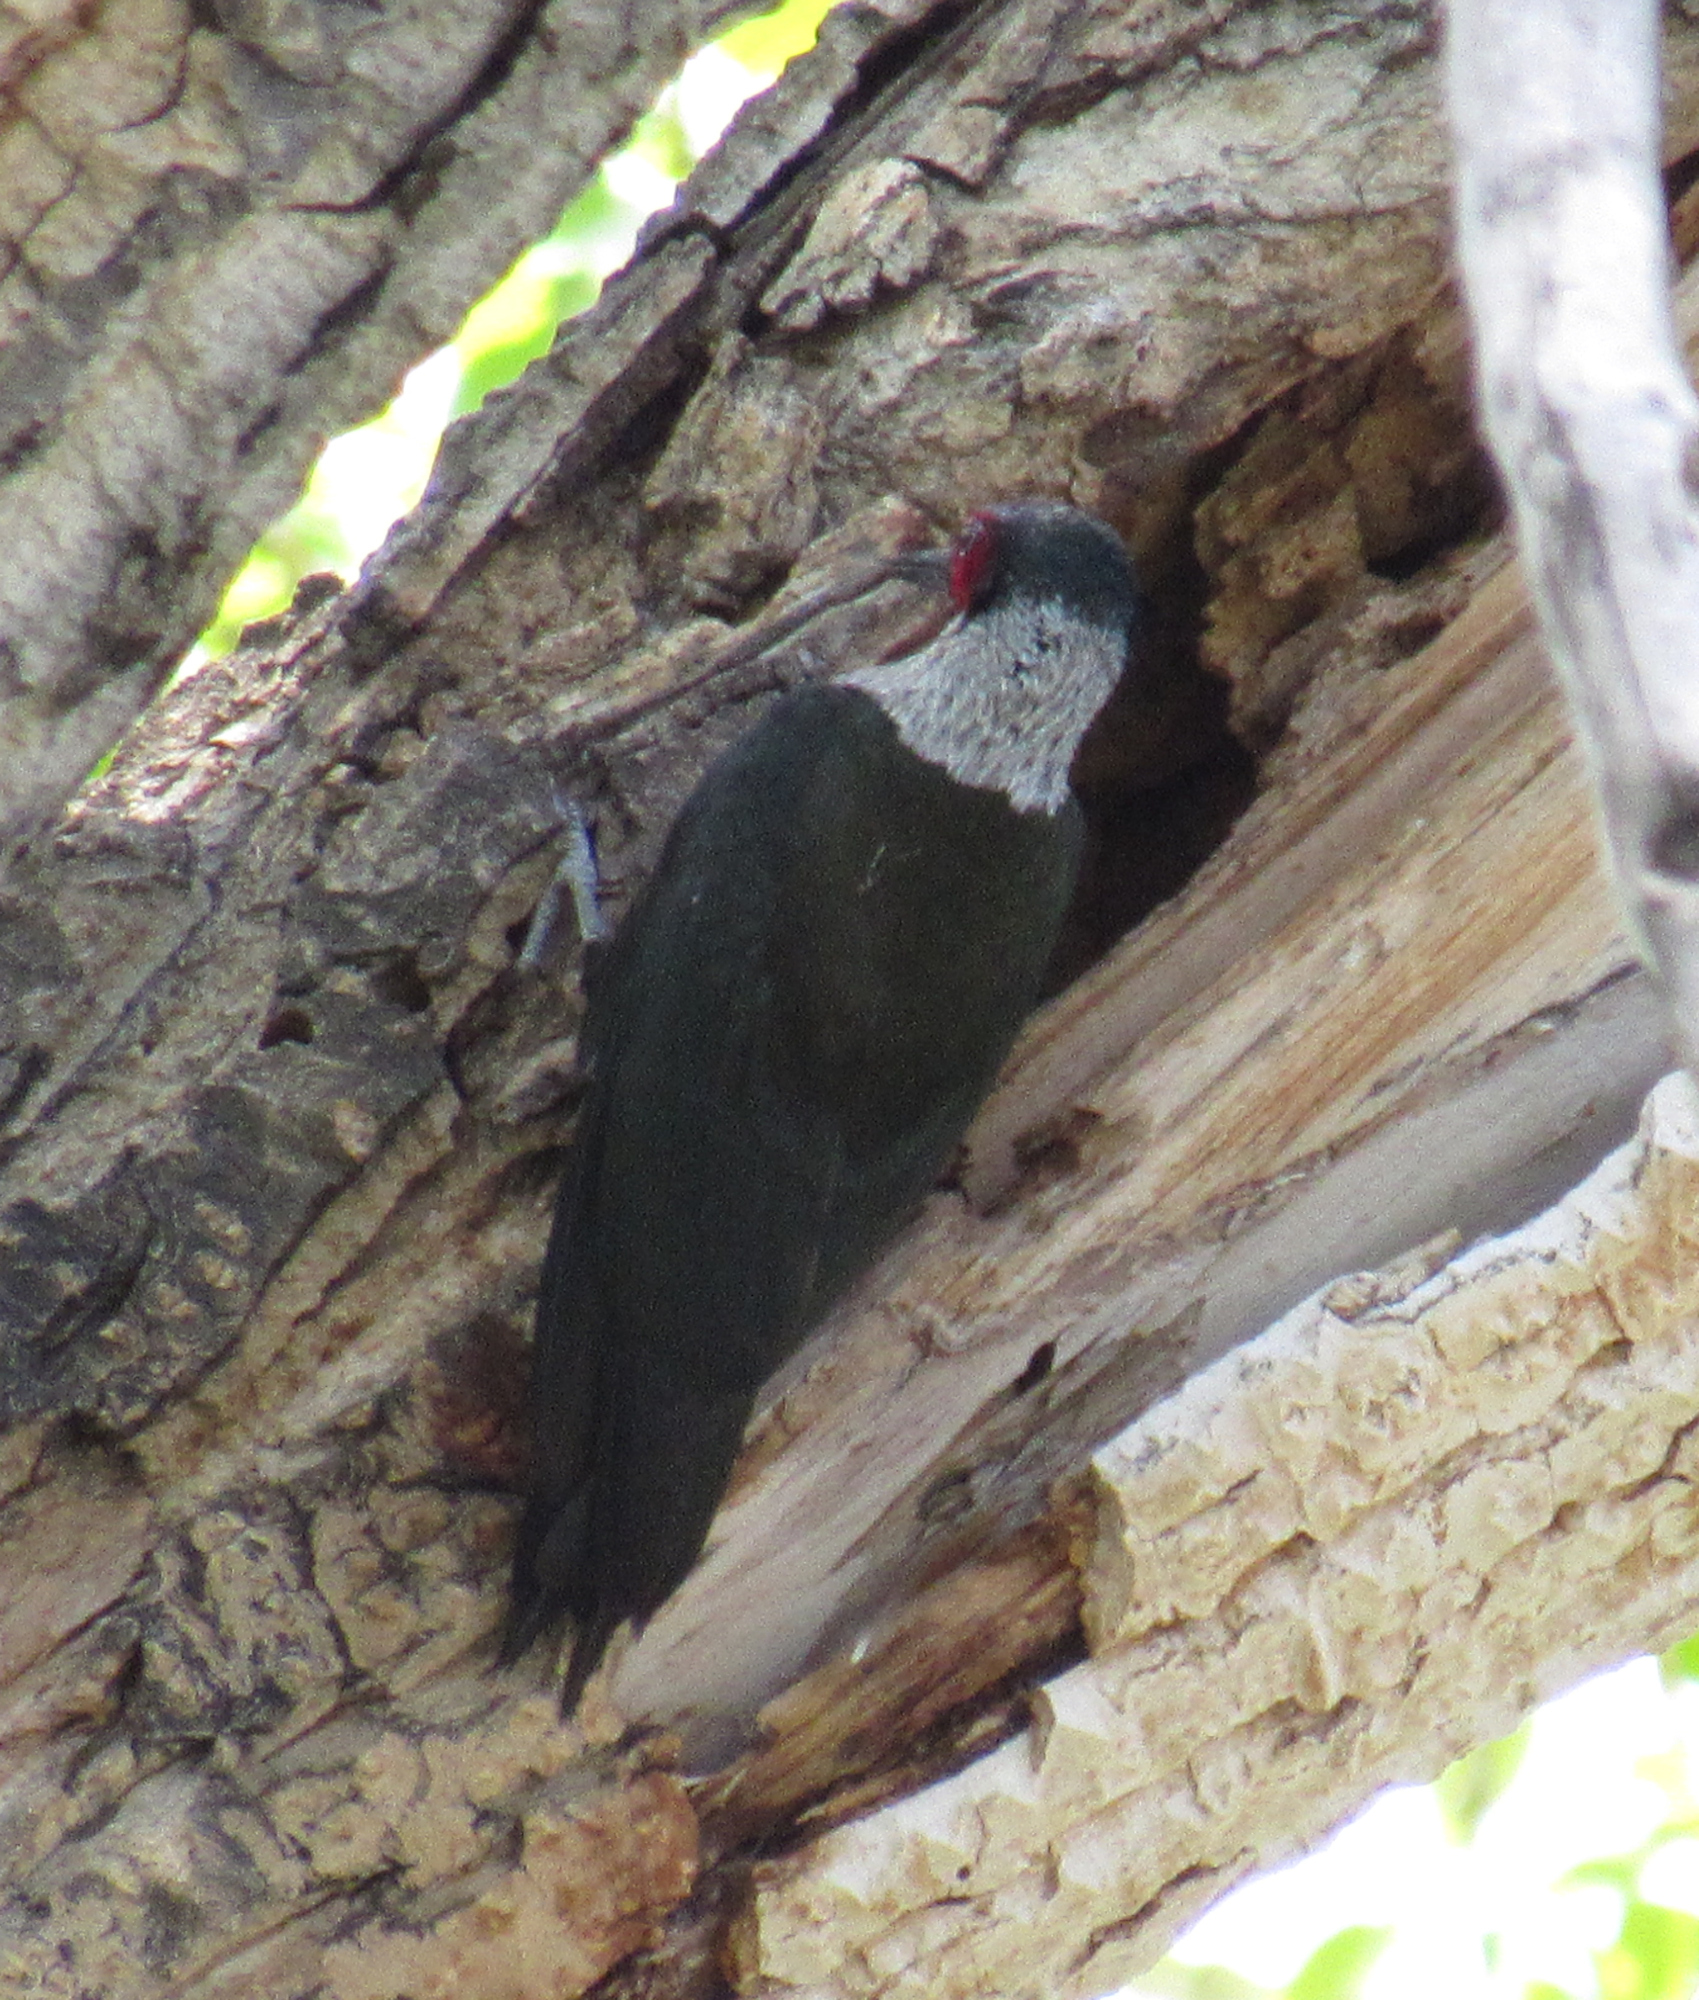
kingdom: Animalia
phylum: Chordata
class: Aves
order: Piciformes
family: Picidae
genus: Melanerpes
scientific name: Melanerpes lewis
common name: Lewis's woodpecker
